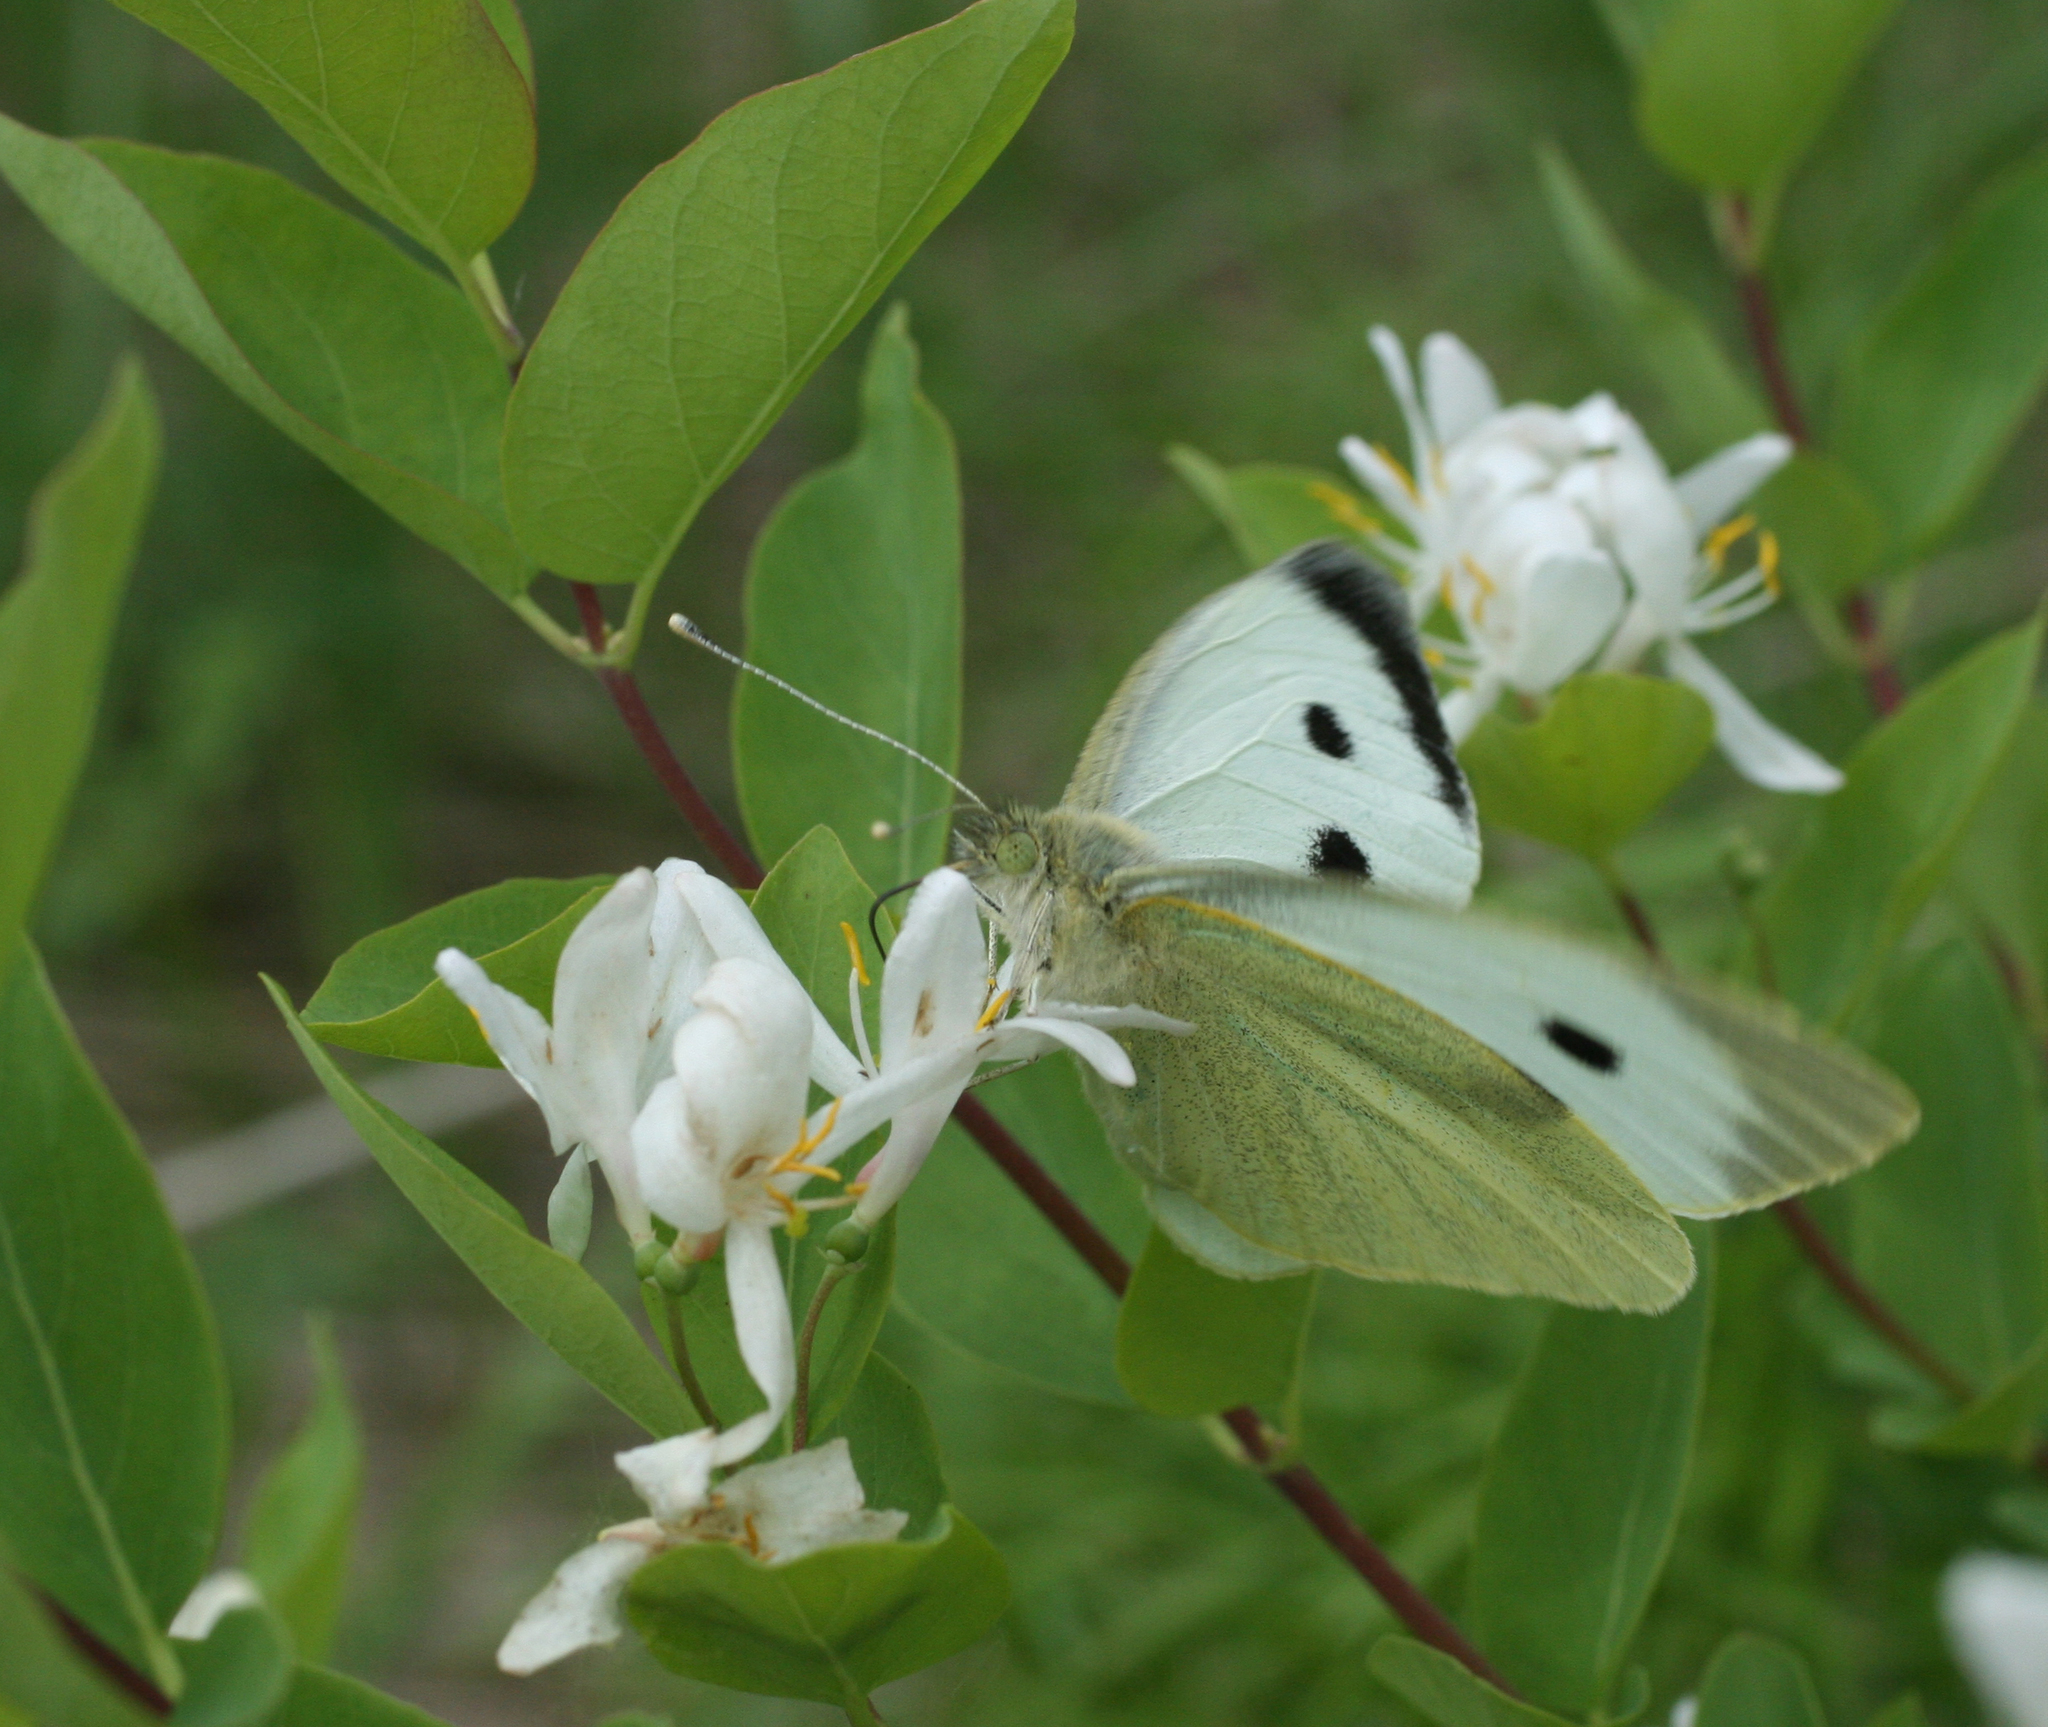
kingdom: Plantae
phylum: Tracheophyta
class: Magnoliopsida
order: Dipsacales
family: Caprifoliaceae
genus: Lonicera
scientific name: Lonicera tatarica
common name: Tatarian honeysuckle
